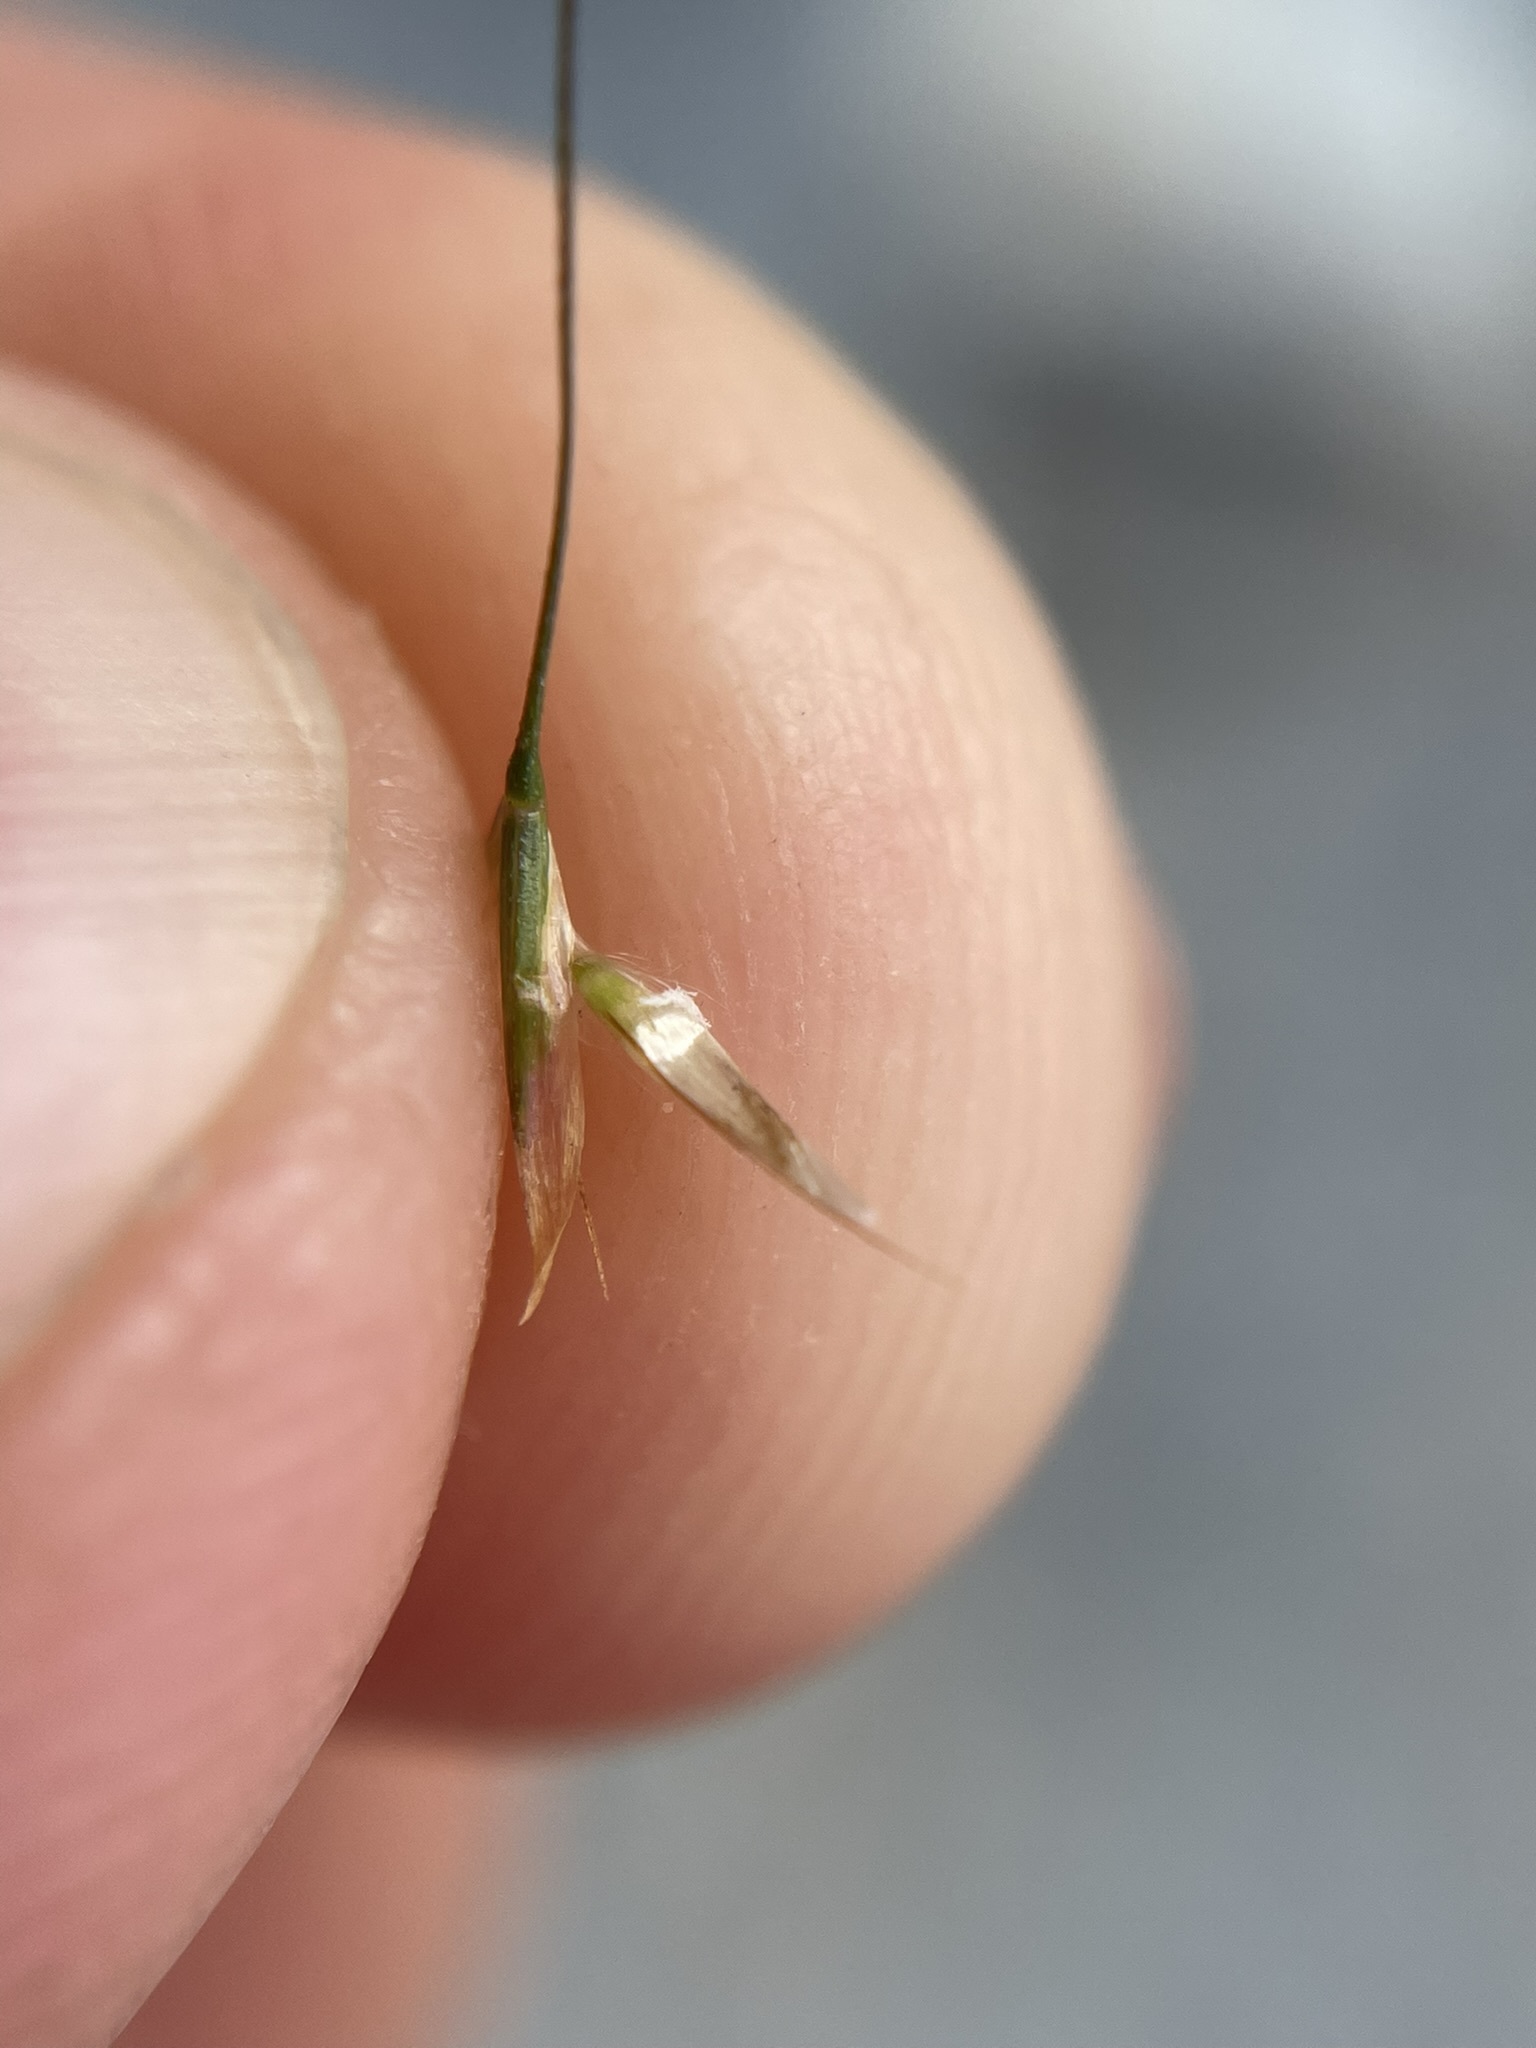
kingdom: Plantae
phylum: Tracheophyta
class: Liliopsida
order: Poales
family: Poaceae
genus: Deschampsia
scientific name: Deschampsia cespitosa
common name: Tufted hair-grass
